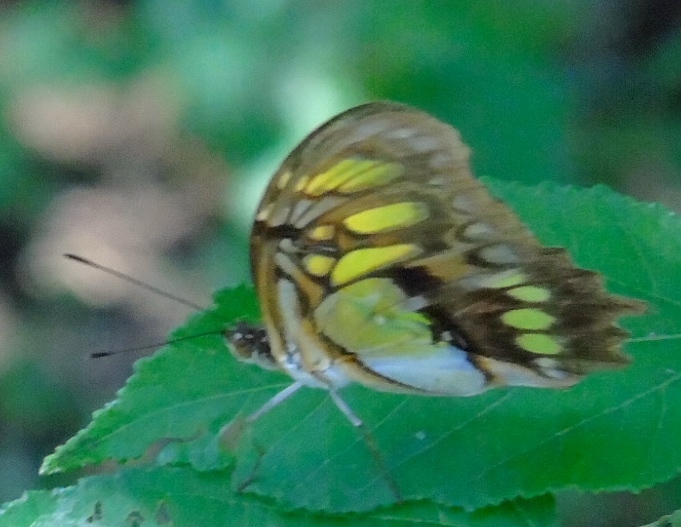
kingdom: Animalia
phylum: Arthropoda
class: Insecta
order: Lepidoptera
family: Nymphalidae
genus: Siproeta
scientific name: Siproeta stelenes
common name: Malachite
